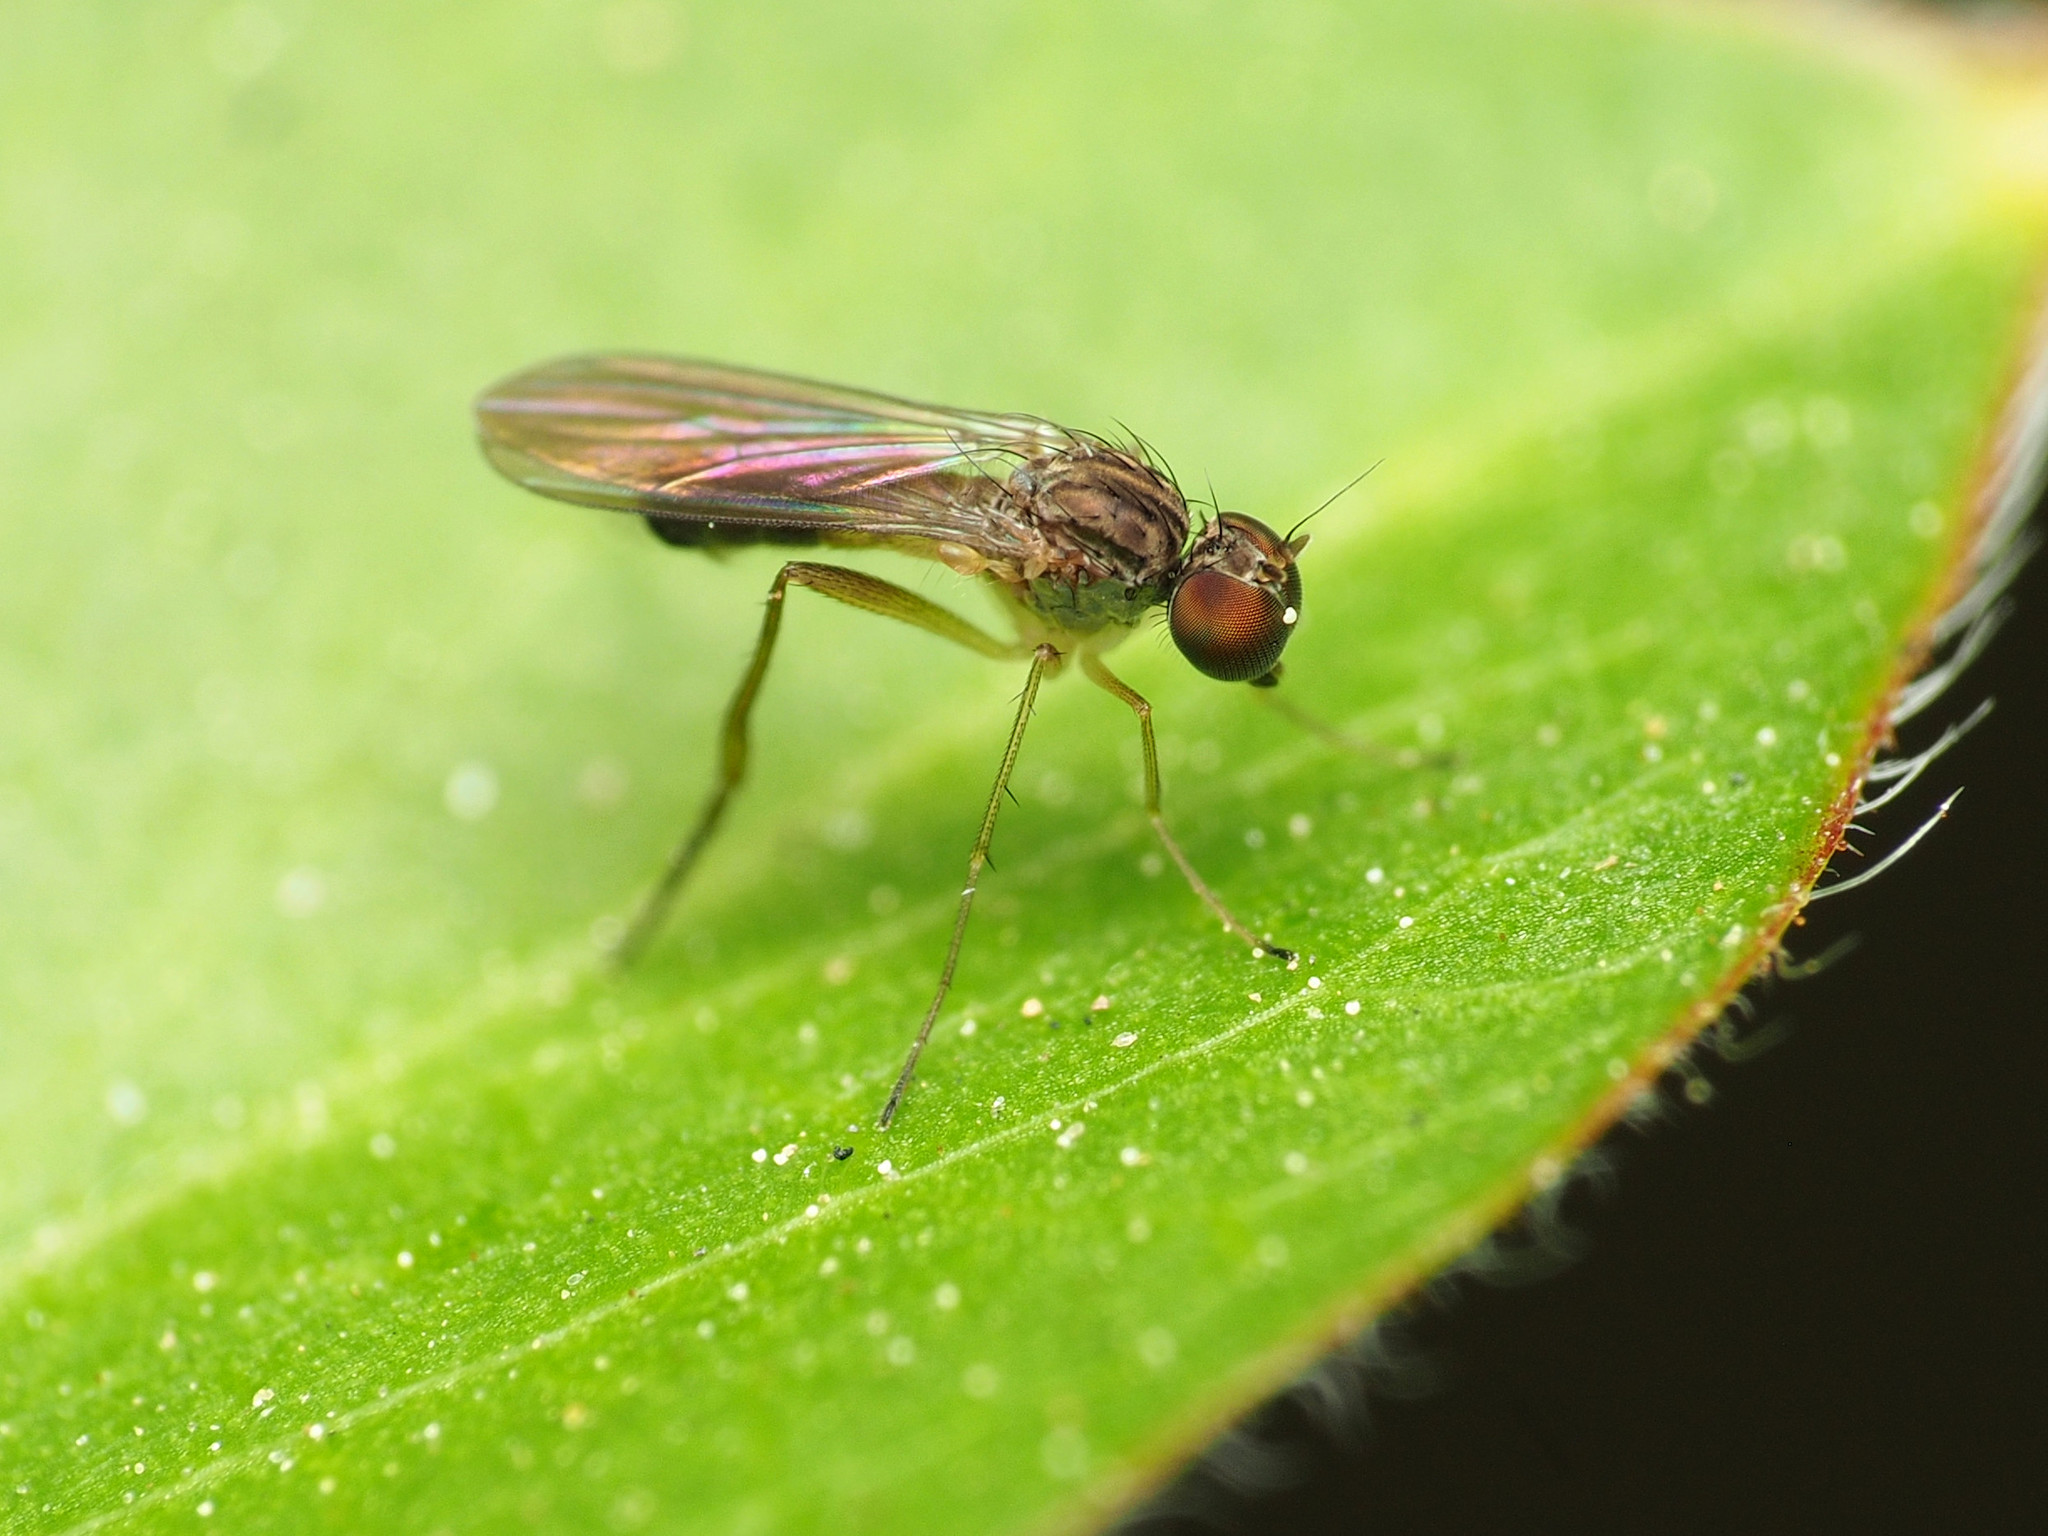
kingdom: Animalia
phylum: Arthropoda
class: Insecta
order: Diptera
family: Dolichopodidae
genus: Sympycnus
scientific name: Sympycnus lineatus
